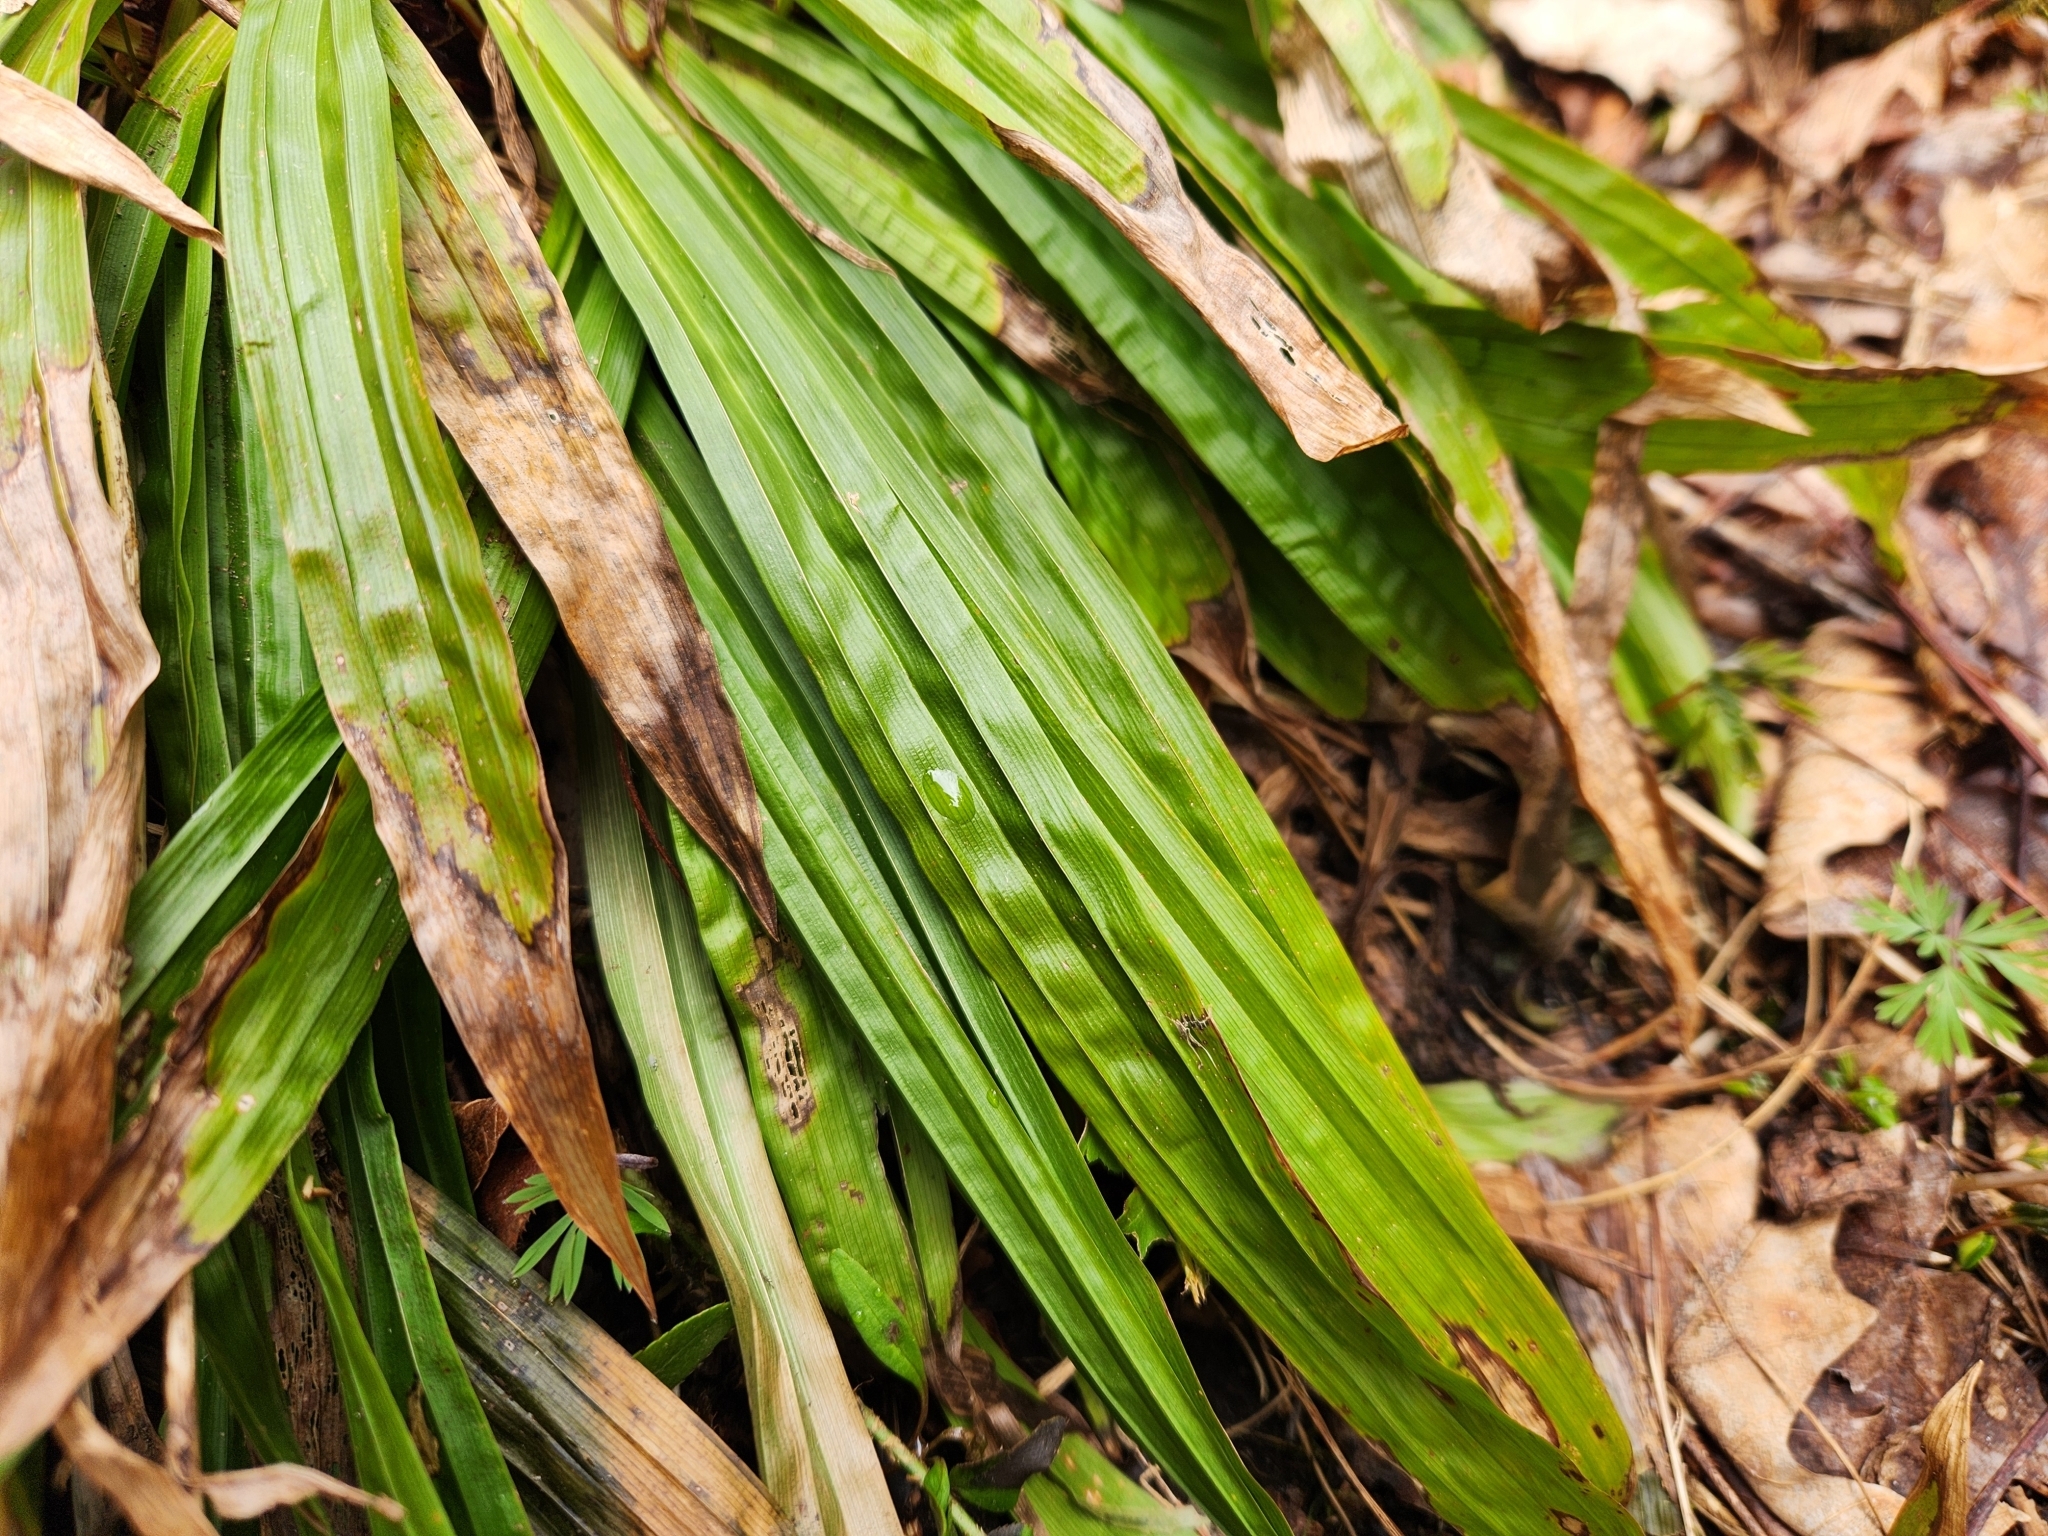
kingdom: Plantae
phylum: Tracheophyta
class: Liliopsida
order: Poales
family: Cyperaceae
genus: Carex
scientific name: Carex plantaginea
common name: Plantain-leaved sedge
